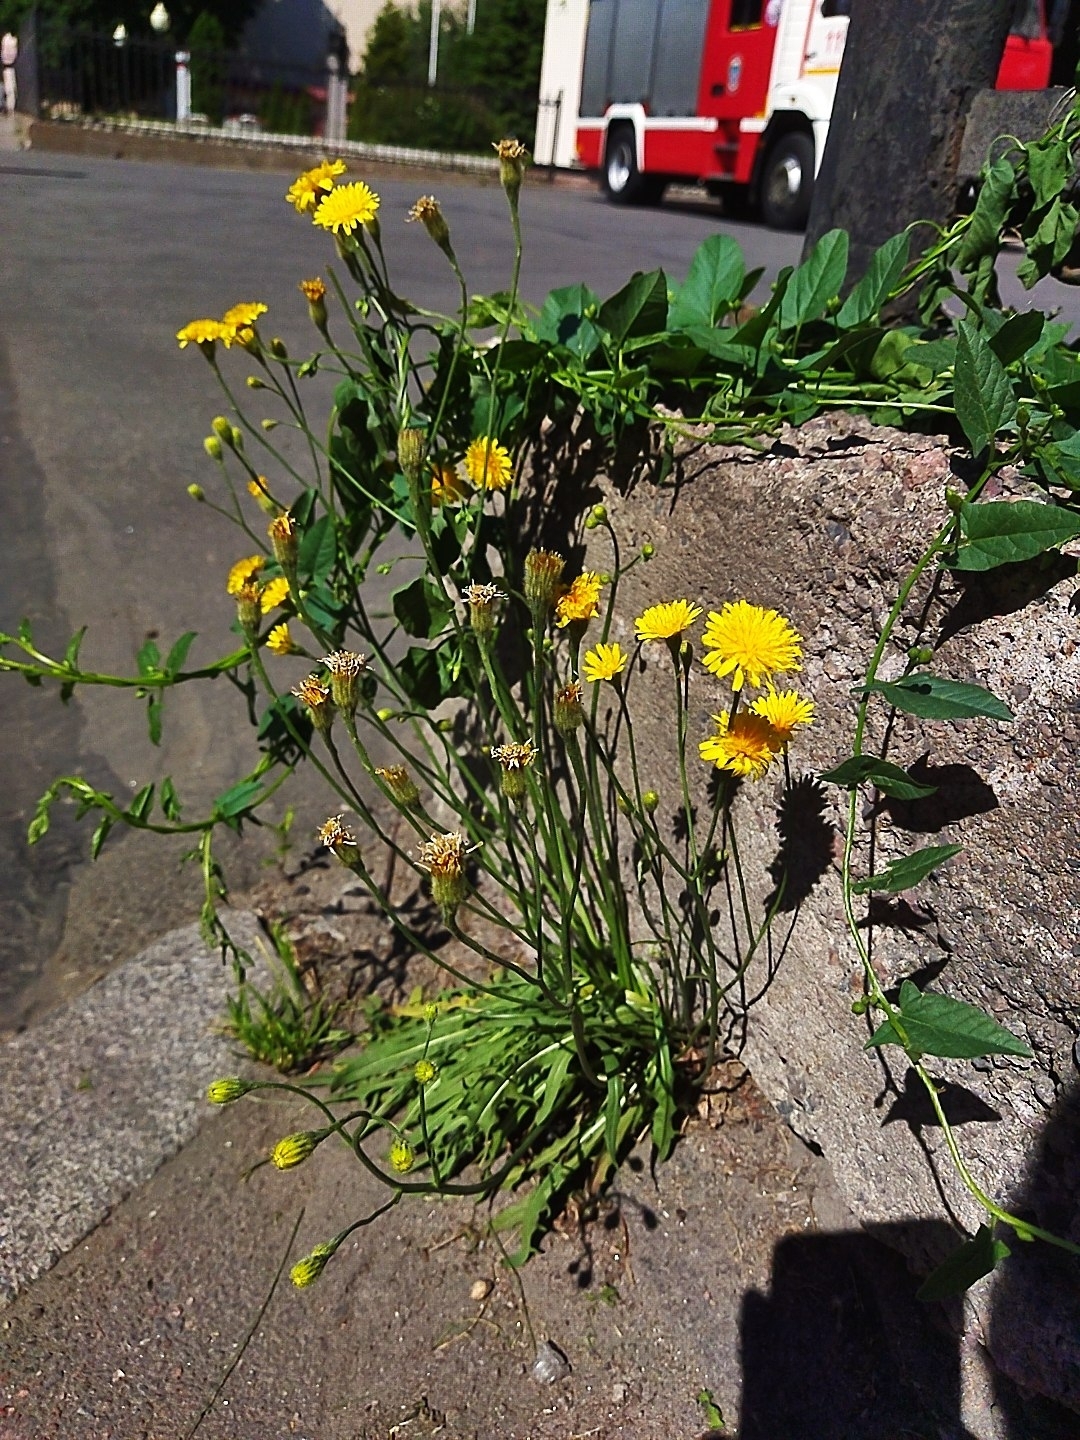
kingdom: Plantae
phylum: Tracheophyta
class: Magnoliopsida
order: Asterales
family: Asteraceae
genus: Scorzoneroides
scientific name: Scorzoneroides autumnalis
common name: Autumn hawkbit
